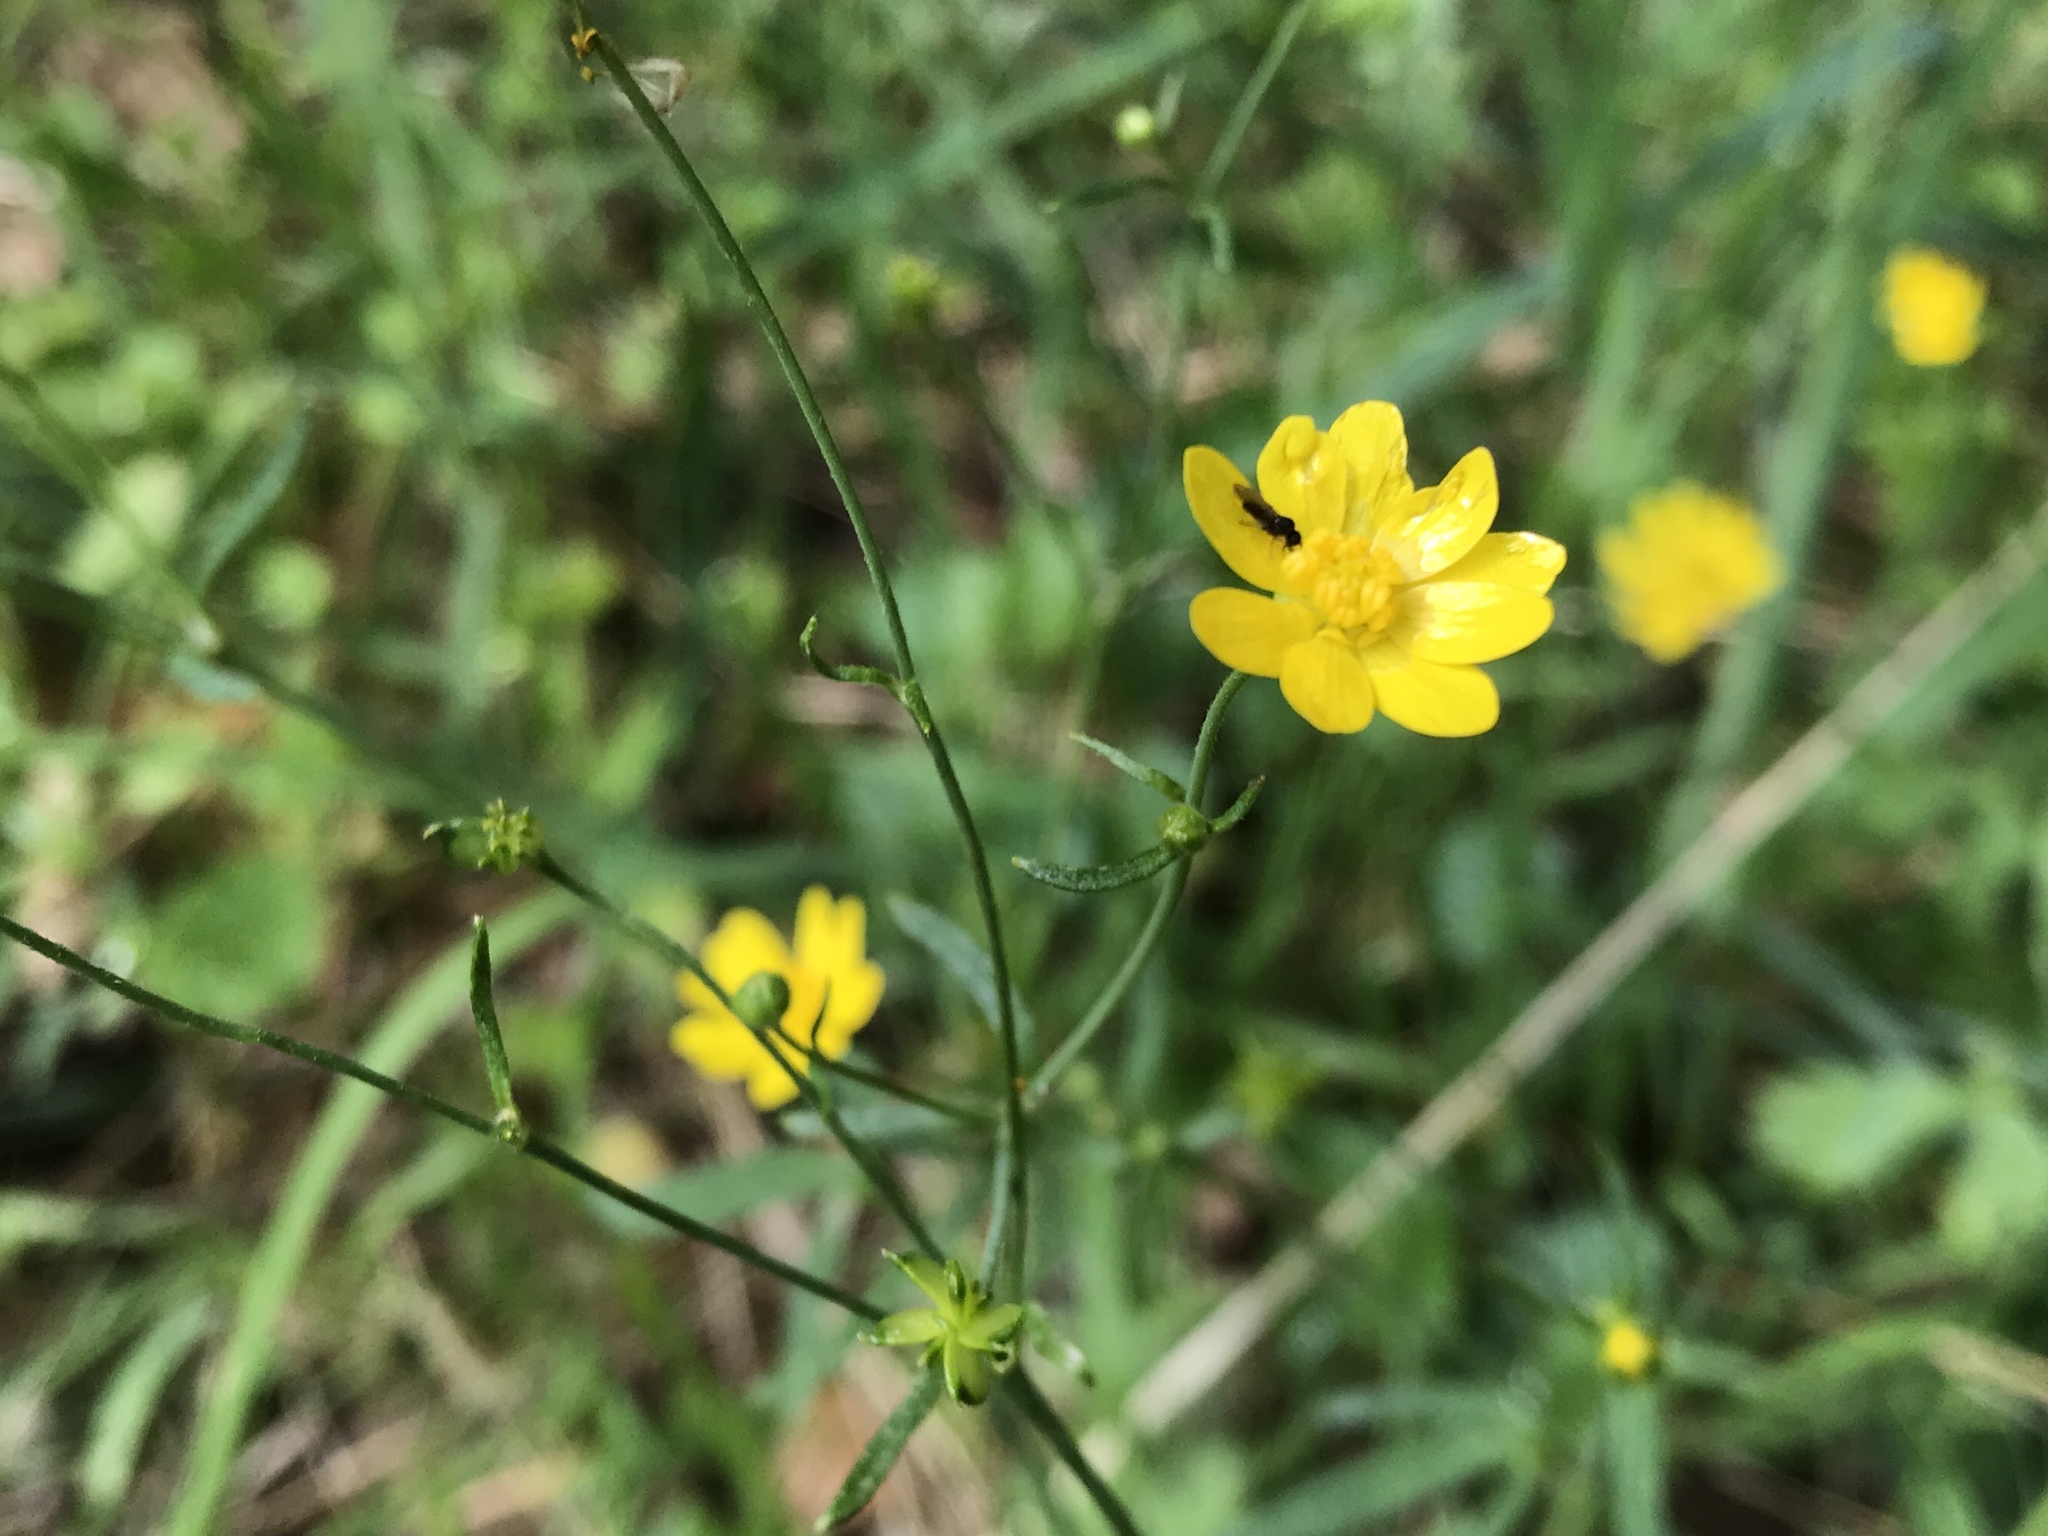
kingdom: Plantae
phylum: Tracheophyta
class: Magnoliopsida
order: Ranunculales
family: Ranunculaceae
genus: Ranunculus
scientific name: Ranunculus californicus
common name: California buttercup
